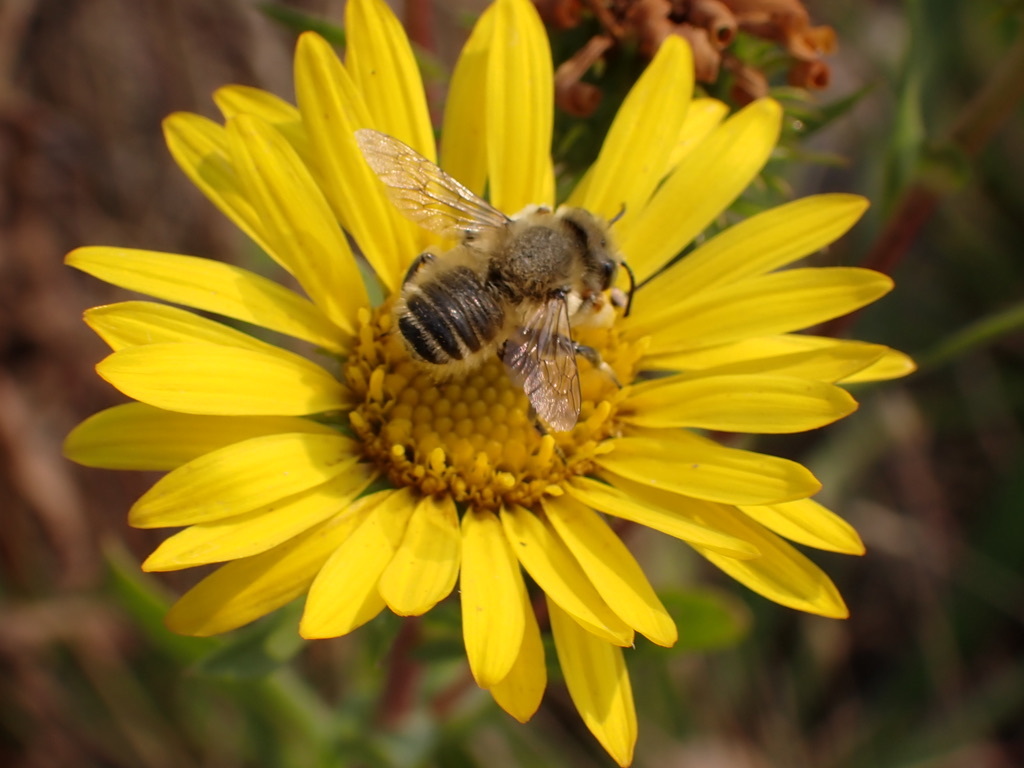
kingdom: Animalia
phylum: Arthropoda
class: Insecta
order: Hymenoptera
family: Megachilidae
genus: Megachile
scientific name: Megachile perihirta
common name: Western leafcutter
